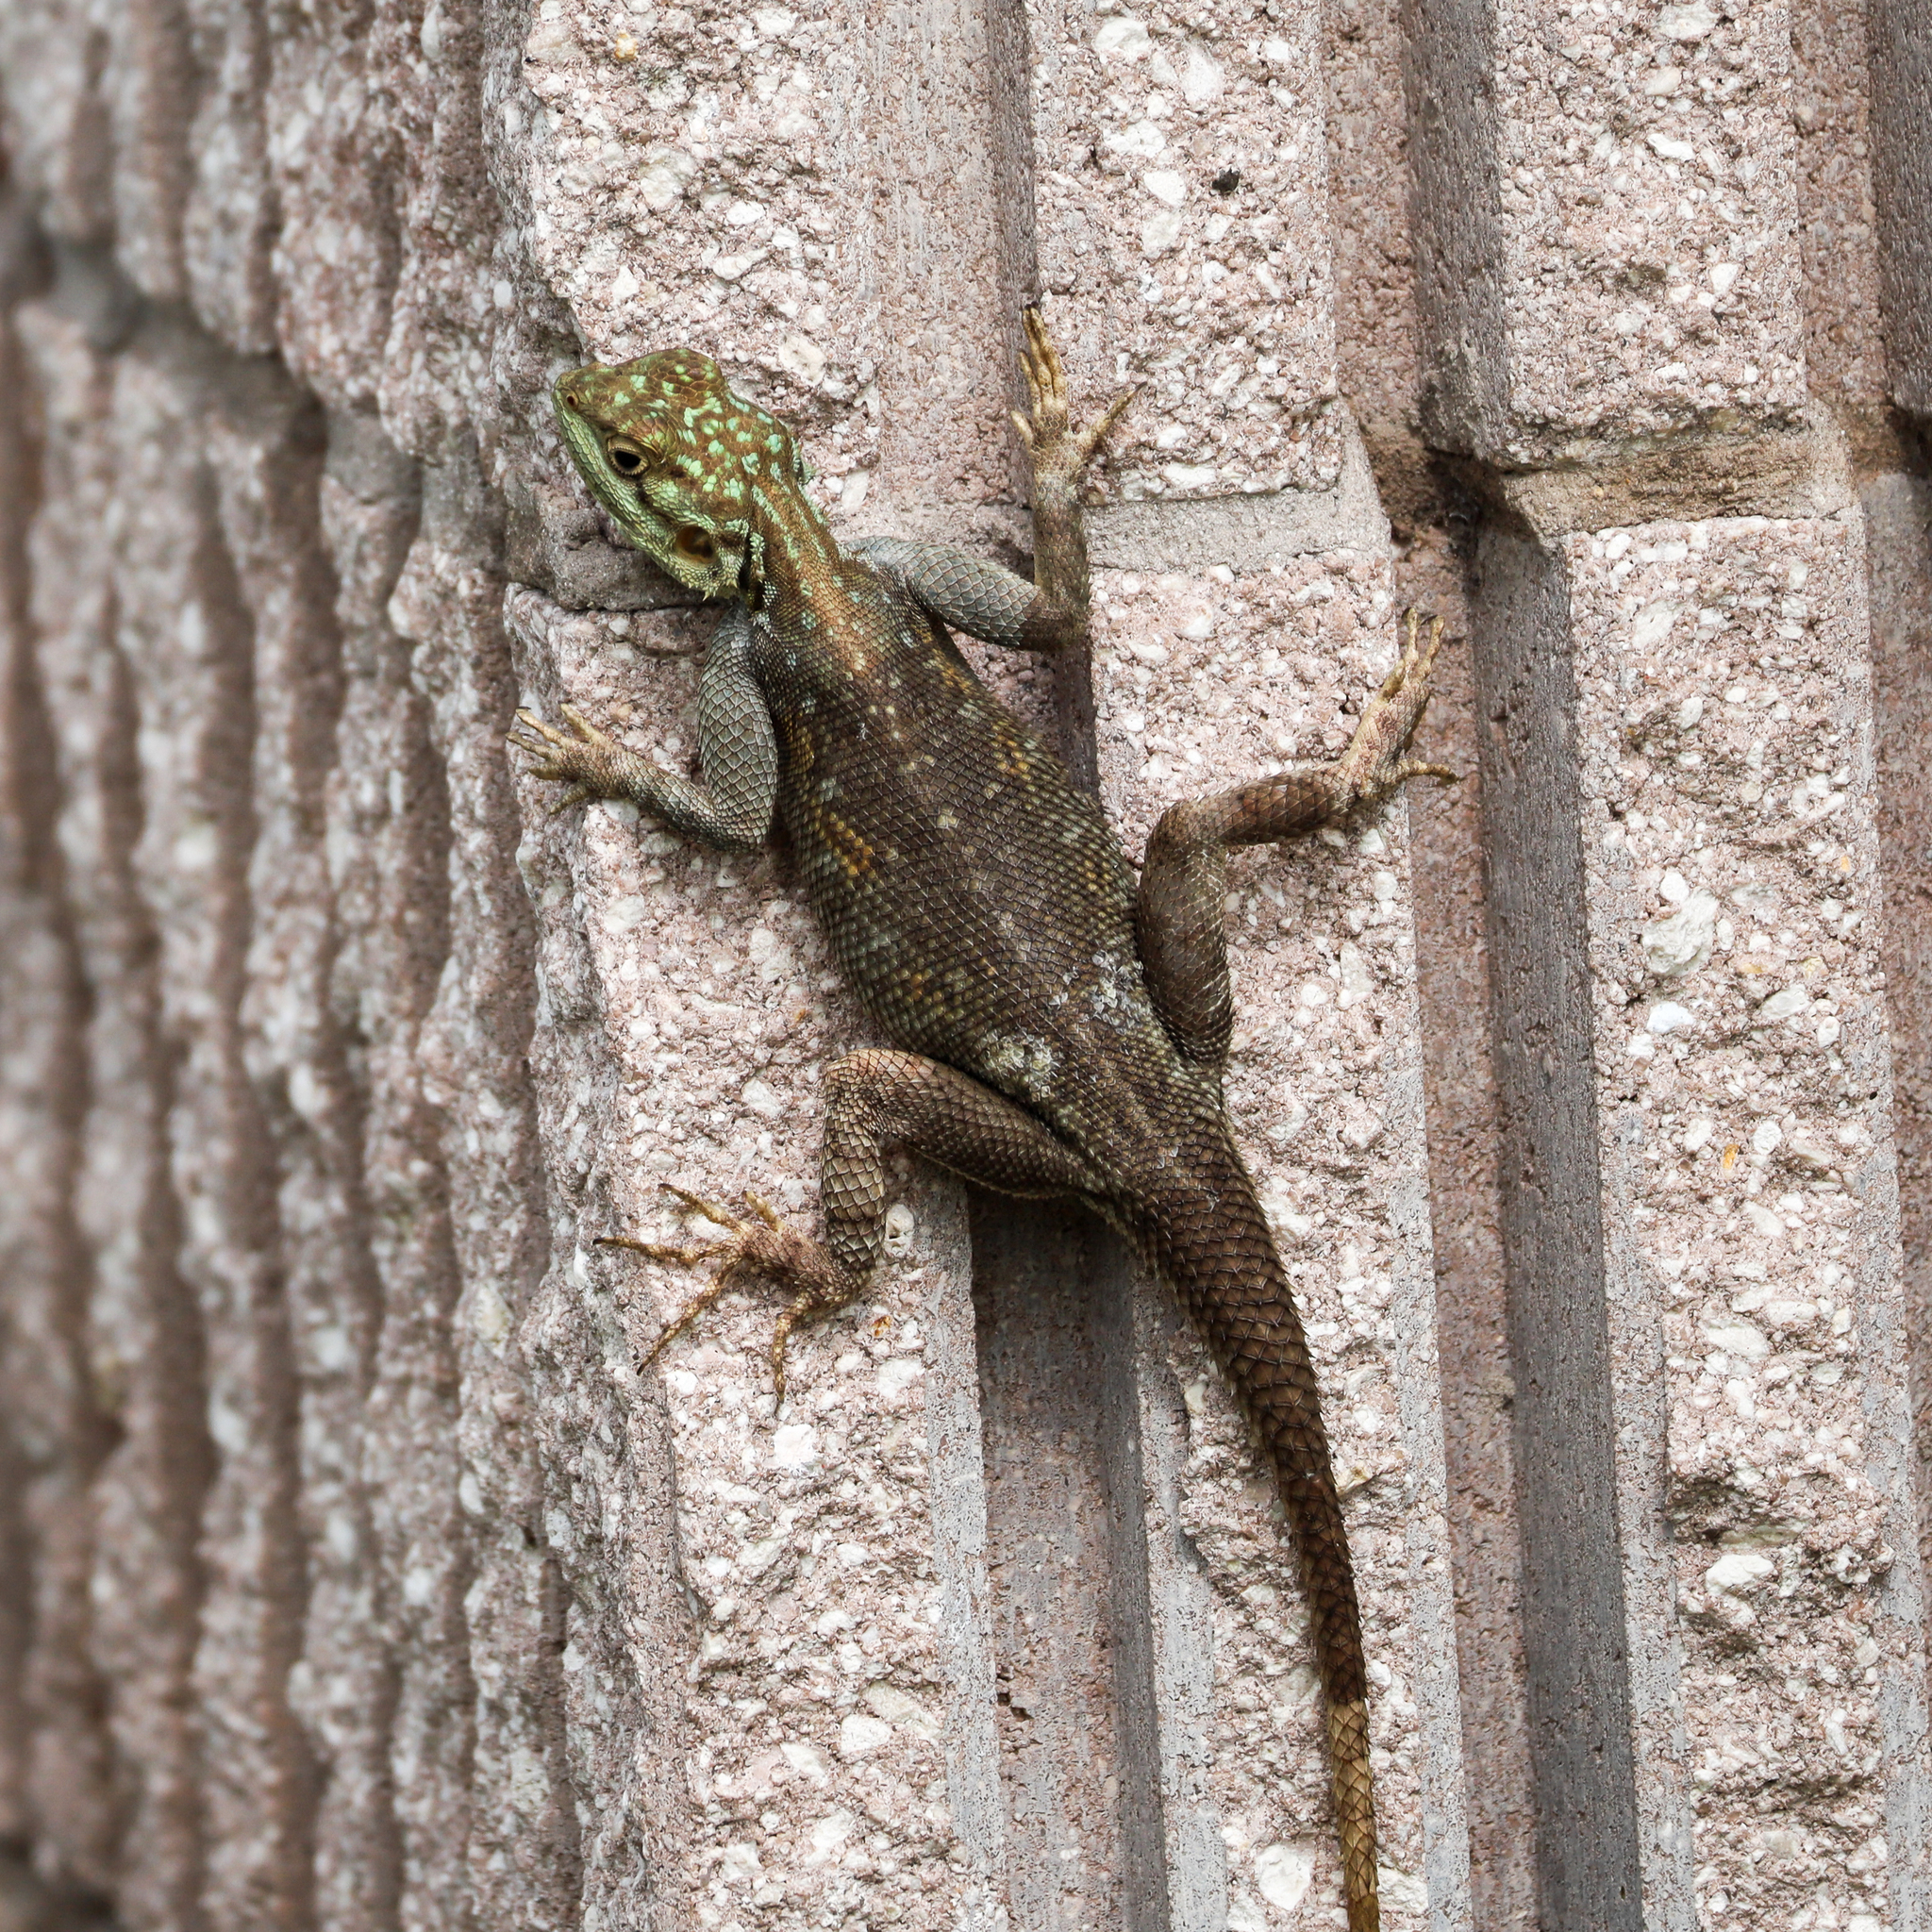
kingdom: Animalia
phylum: Chordata
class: Squamata
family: Agamidae
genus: Agama
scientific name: Agama picticauda
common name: Red-headed agama
